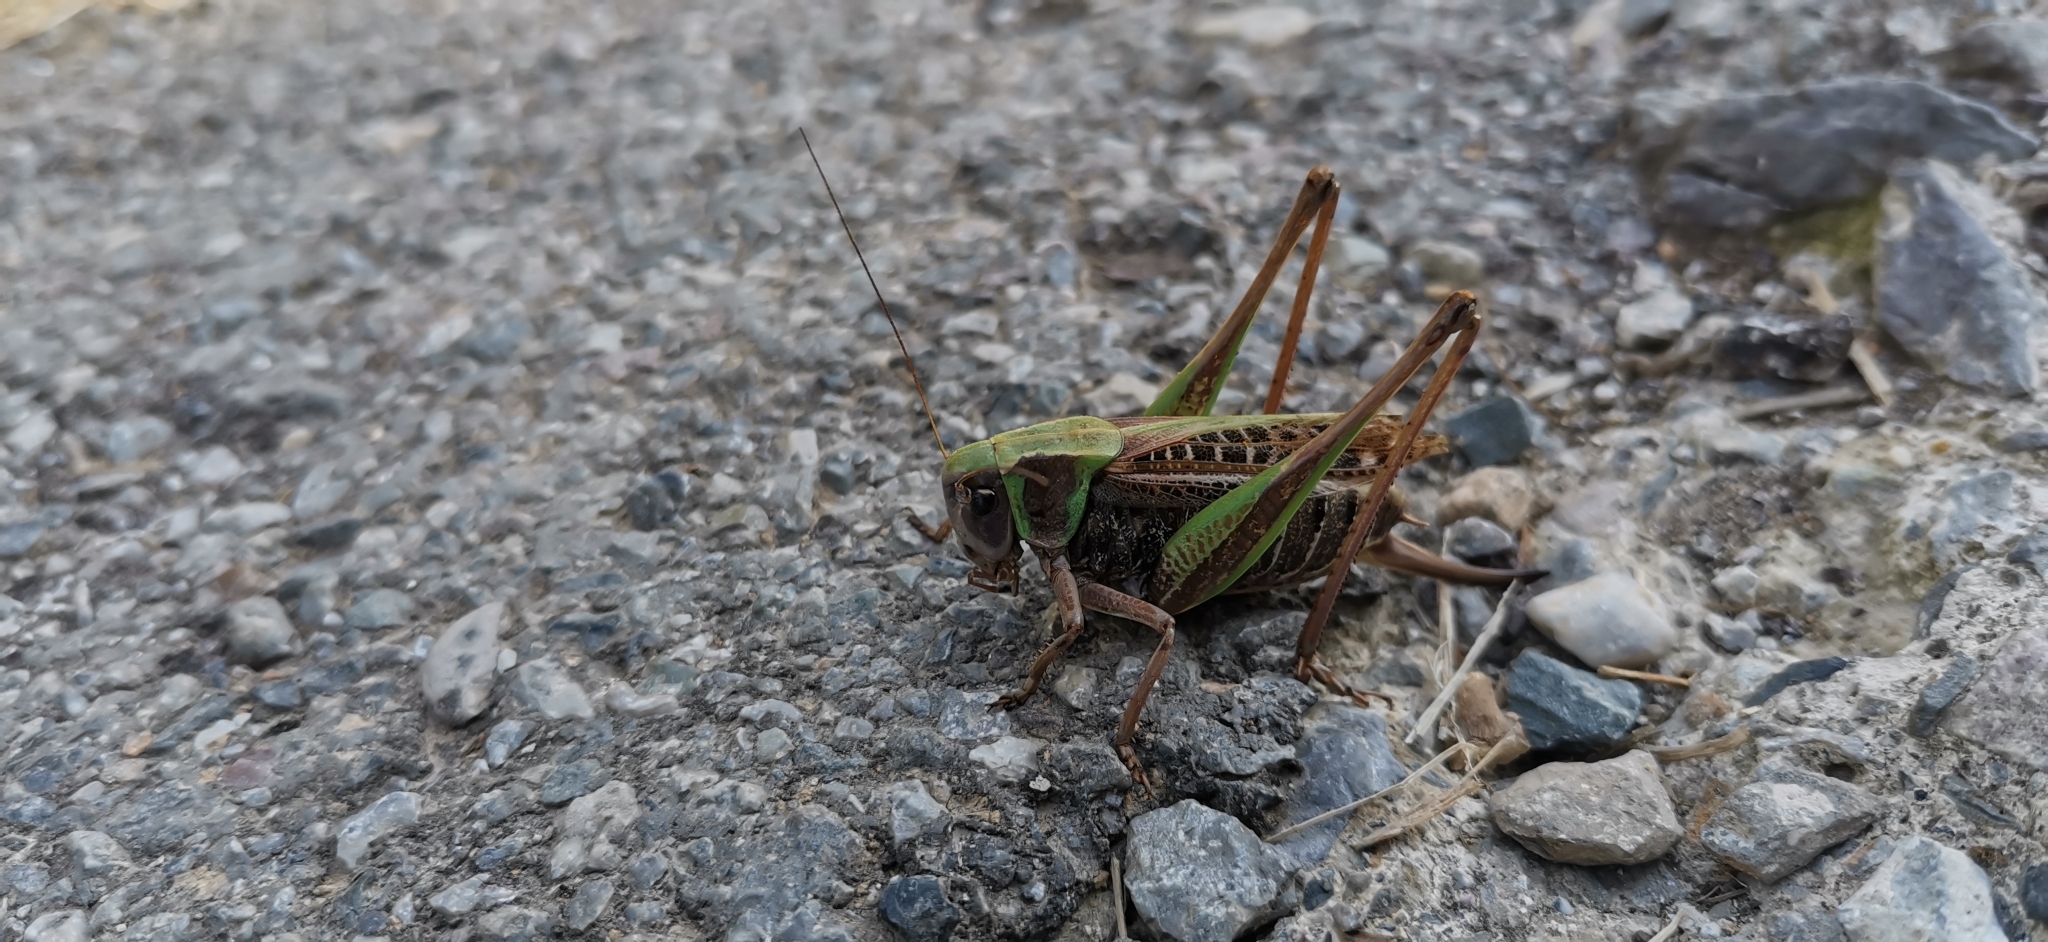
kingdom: Animalia
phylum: Arthropoda
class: Insecta
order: Orthoptera
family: Tettigoniidae
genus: Decticus
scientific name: Decticus verrucivorus
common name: Wart-biter
